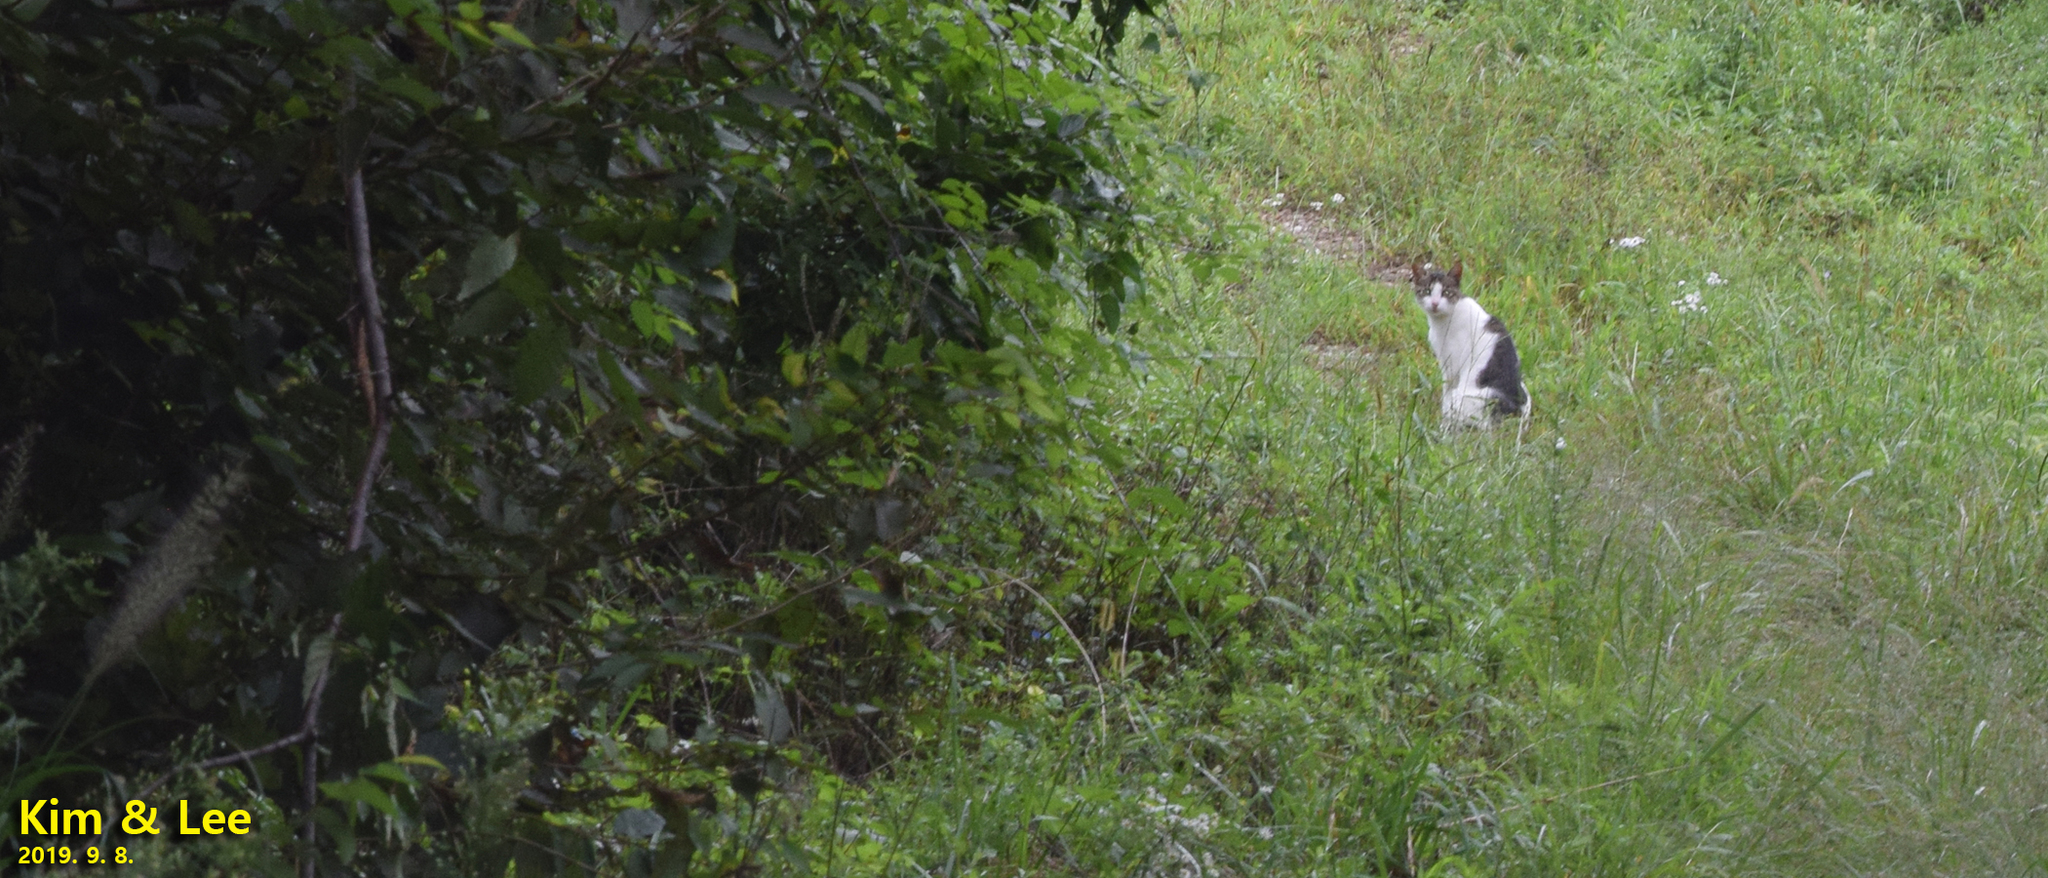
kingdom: Animalia
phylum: Chordata
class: Mammalia
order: Carnivora
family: Felidae
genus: Felis
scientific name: Felis catus
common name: Domestic cat
